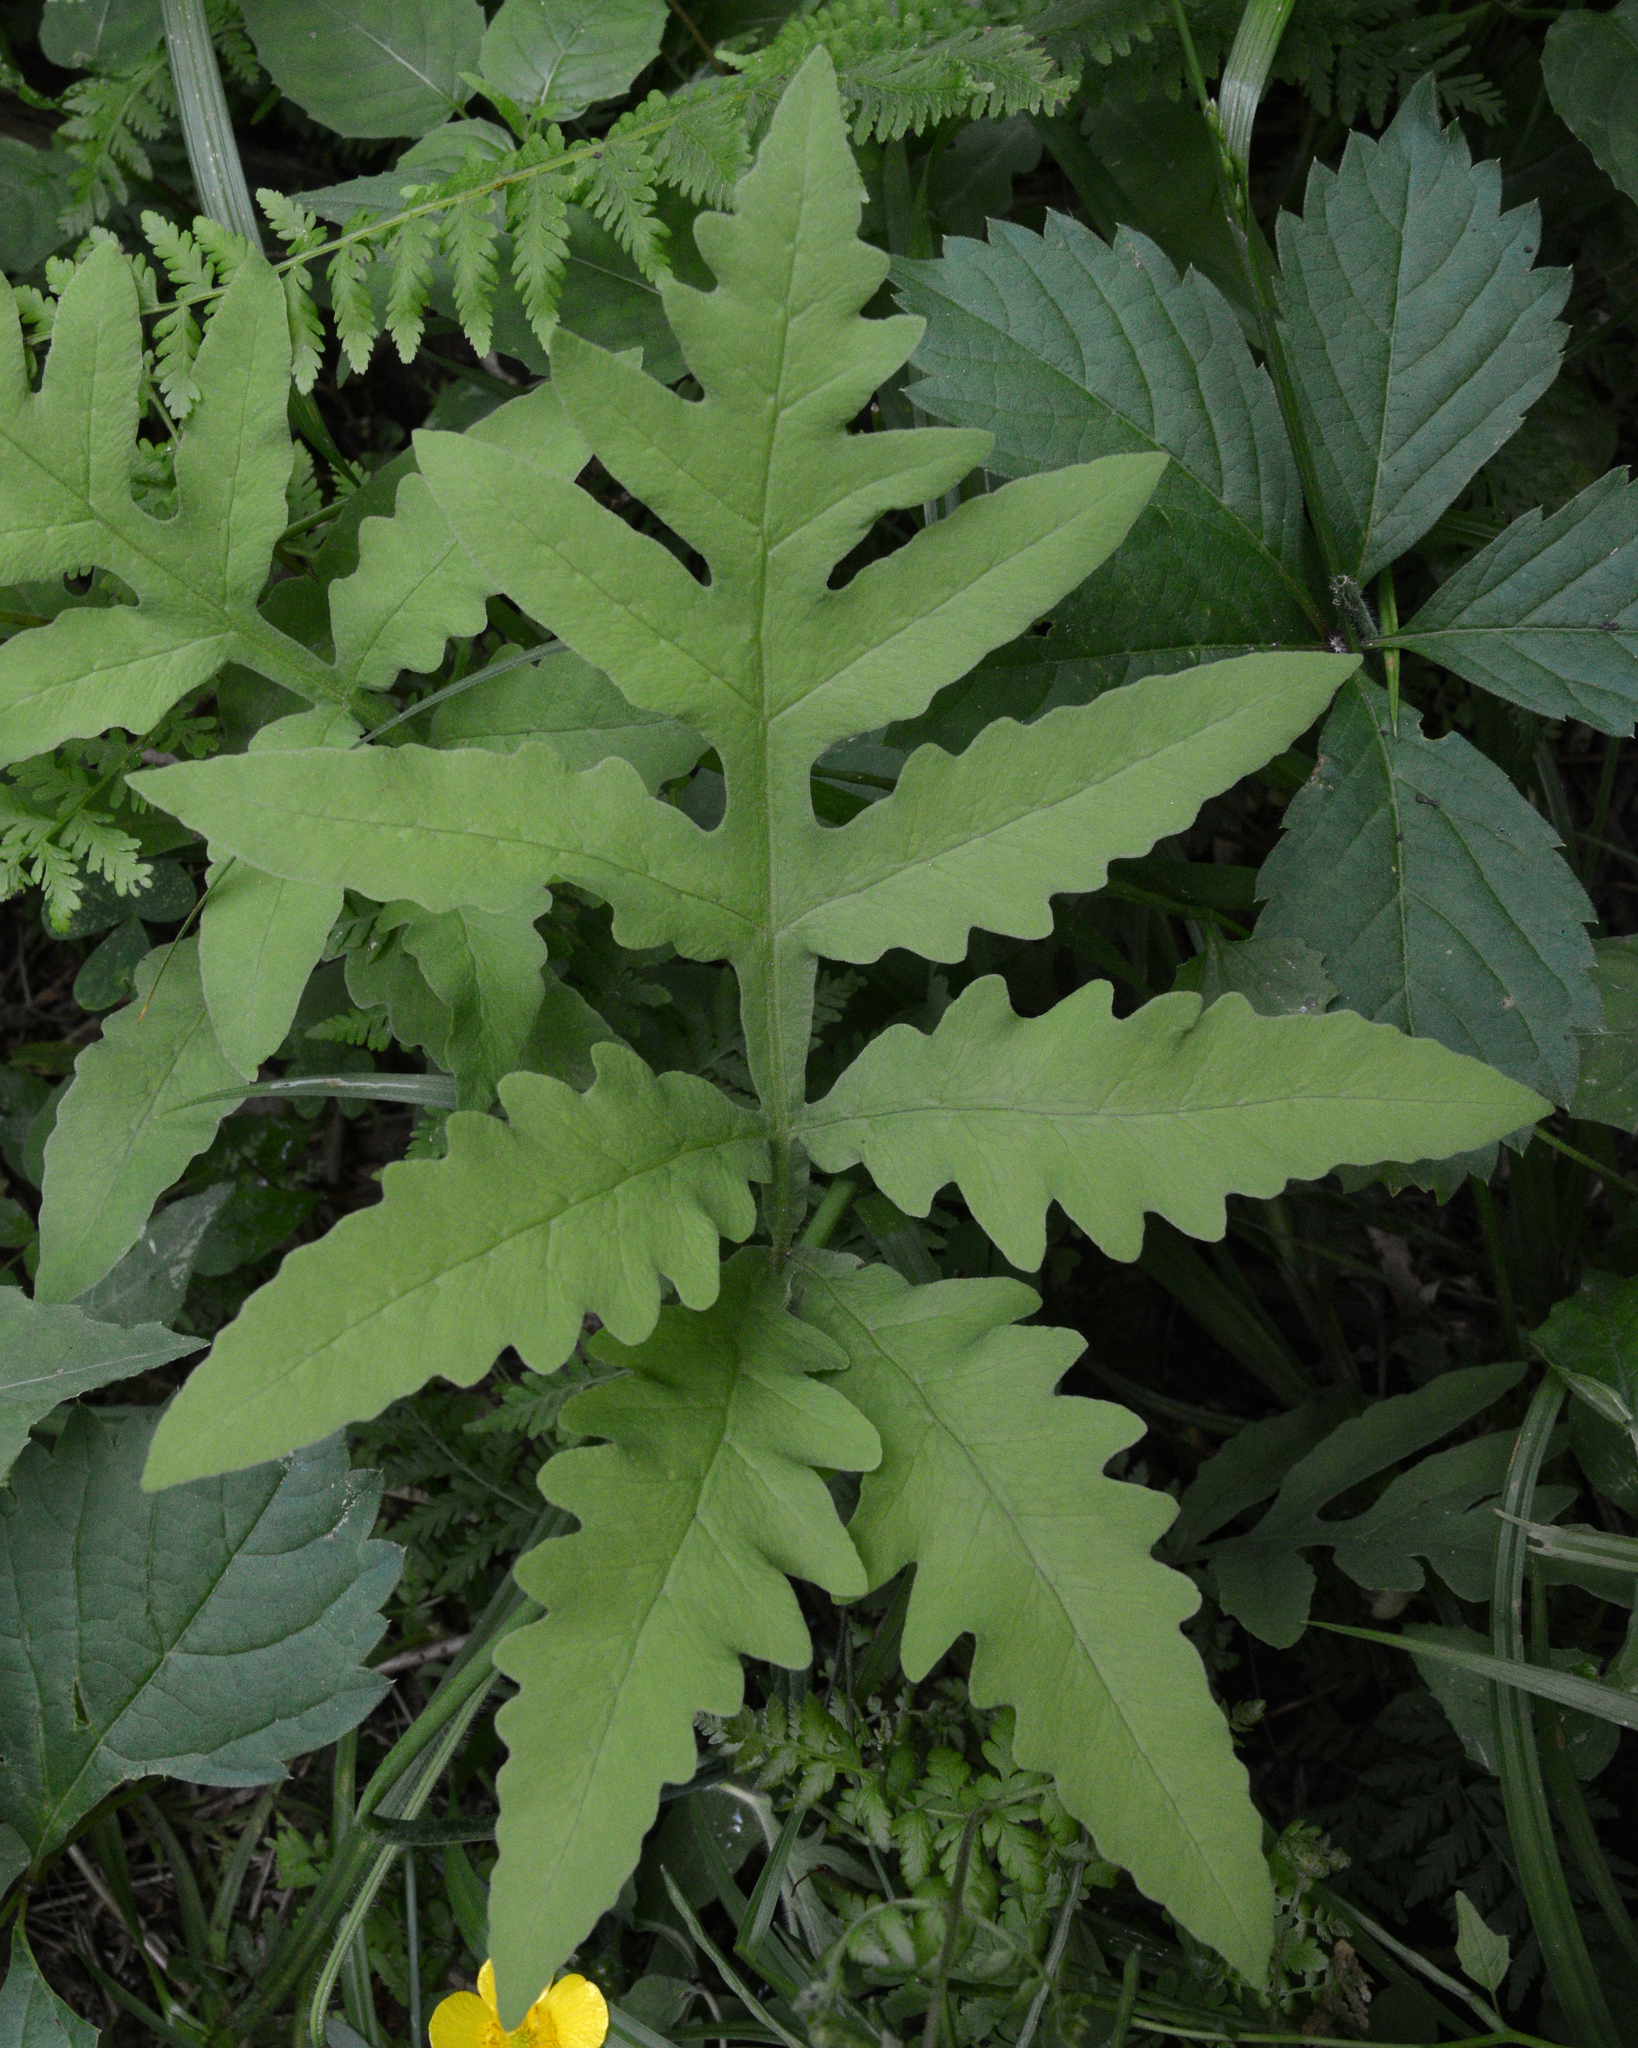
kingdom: Plantae
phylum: Tracheophyta
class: Polypodiopsida
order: Polypodiales
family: Onocleaceae
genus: Onoclea
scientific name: Onoclea sensibilis
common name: Sensitive fern
